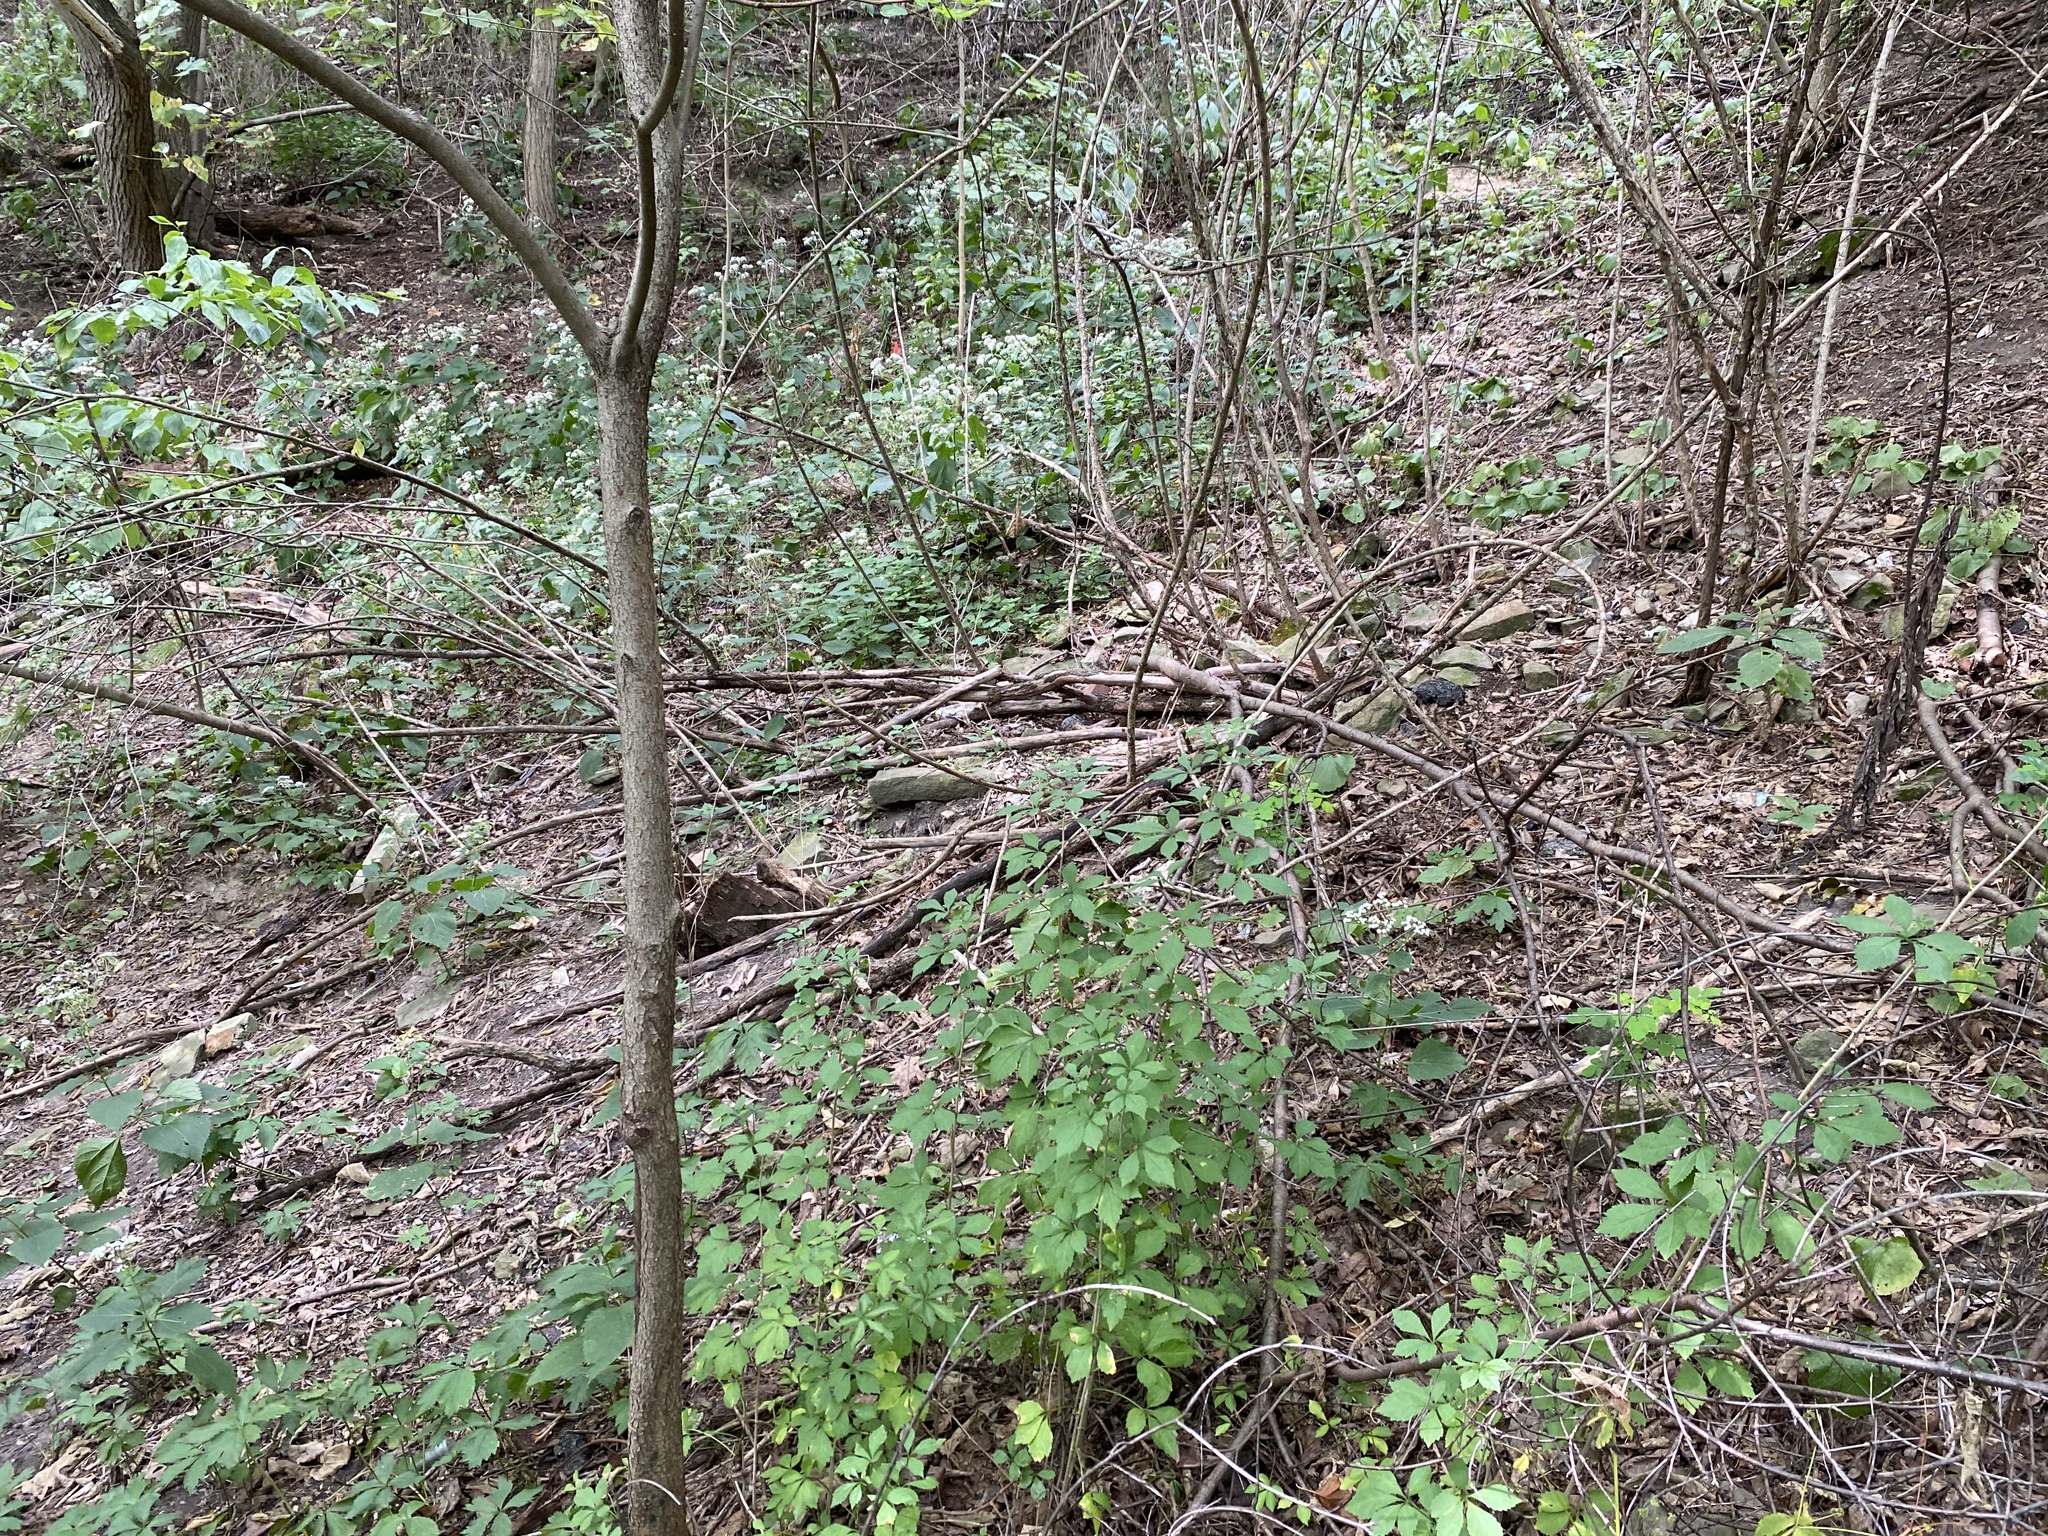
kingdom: Plantae
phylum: Tracheophyta
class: Magnoliopsida
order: Apiales
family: Araliaceae
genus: Eleutherococcus
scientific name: Eleutherococcus sieboldianus
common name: Ginseng
